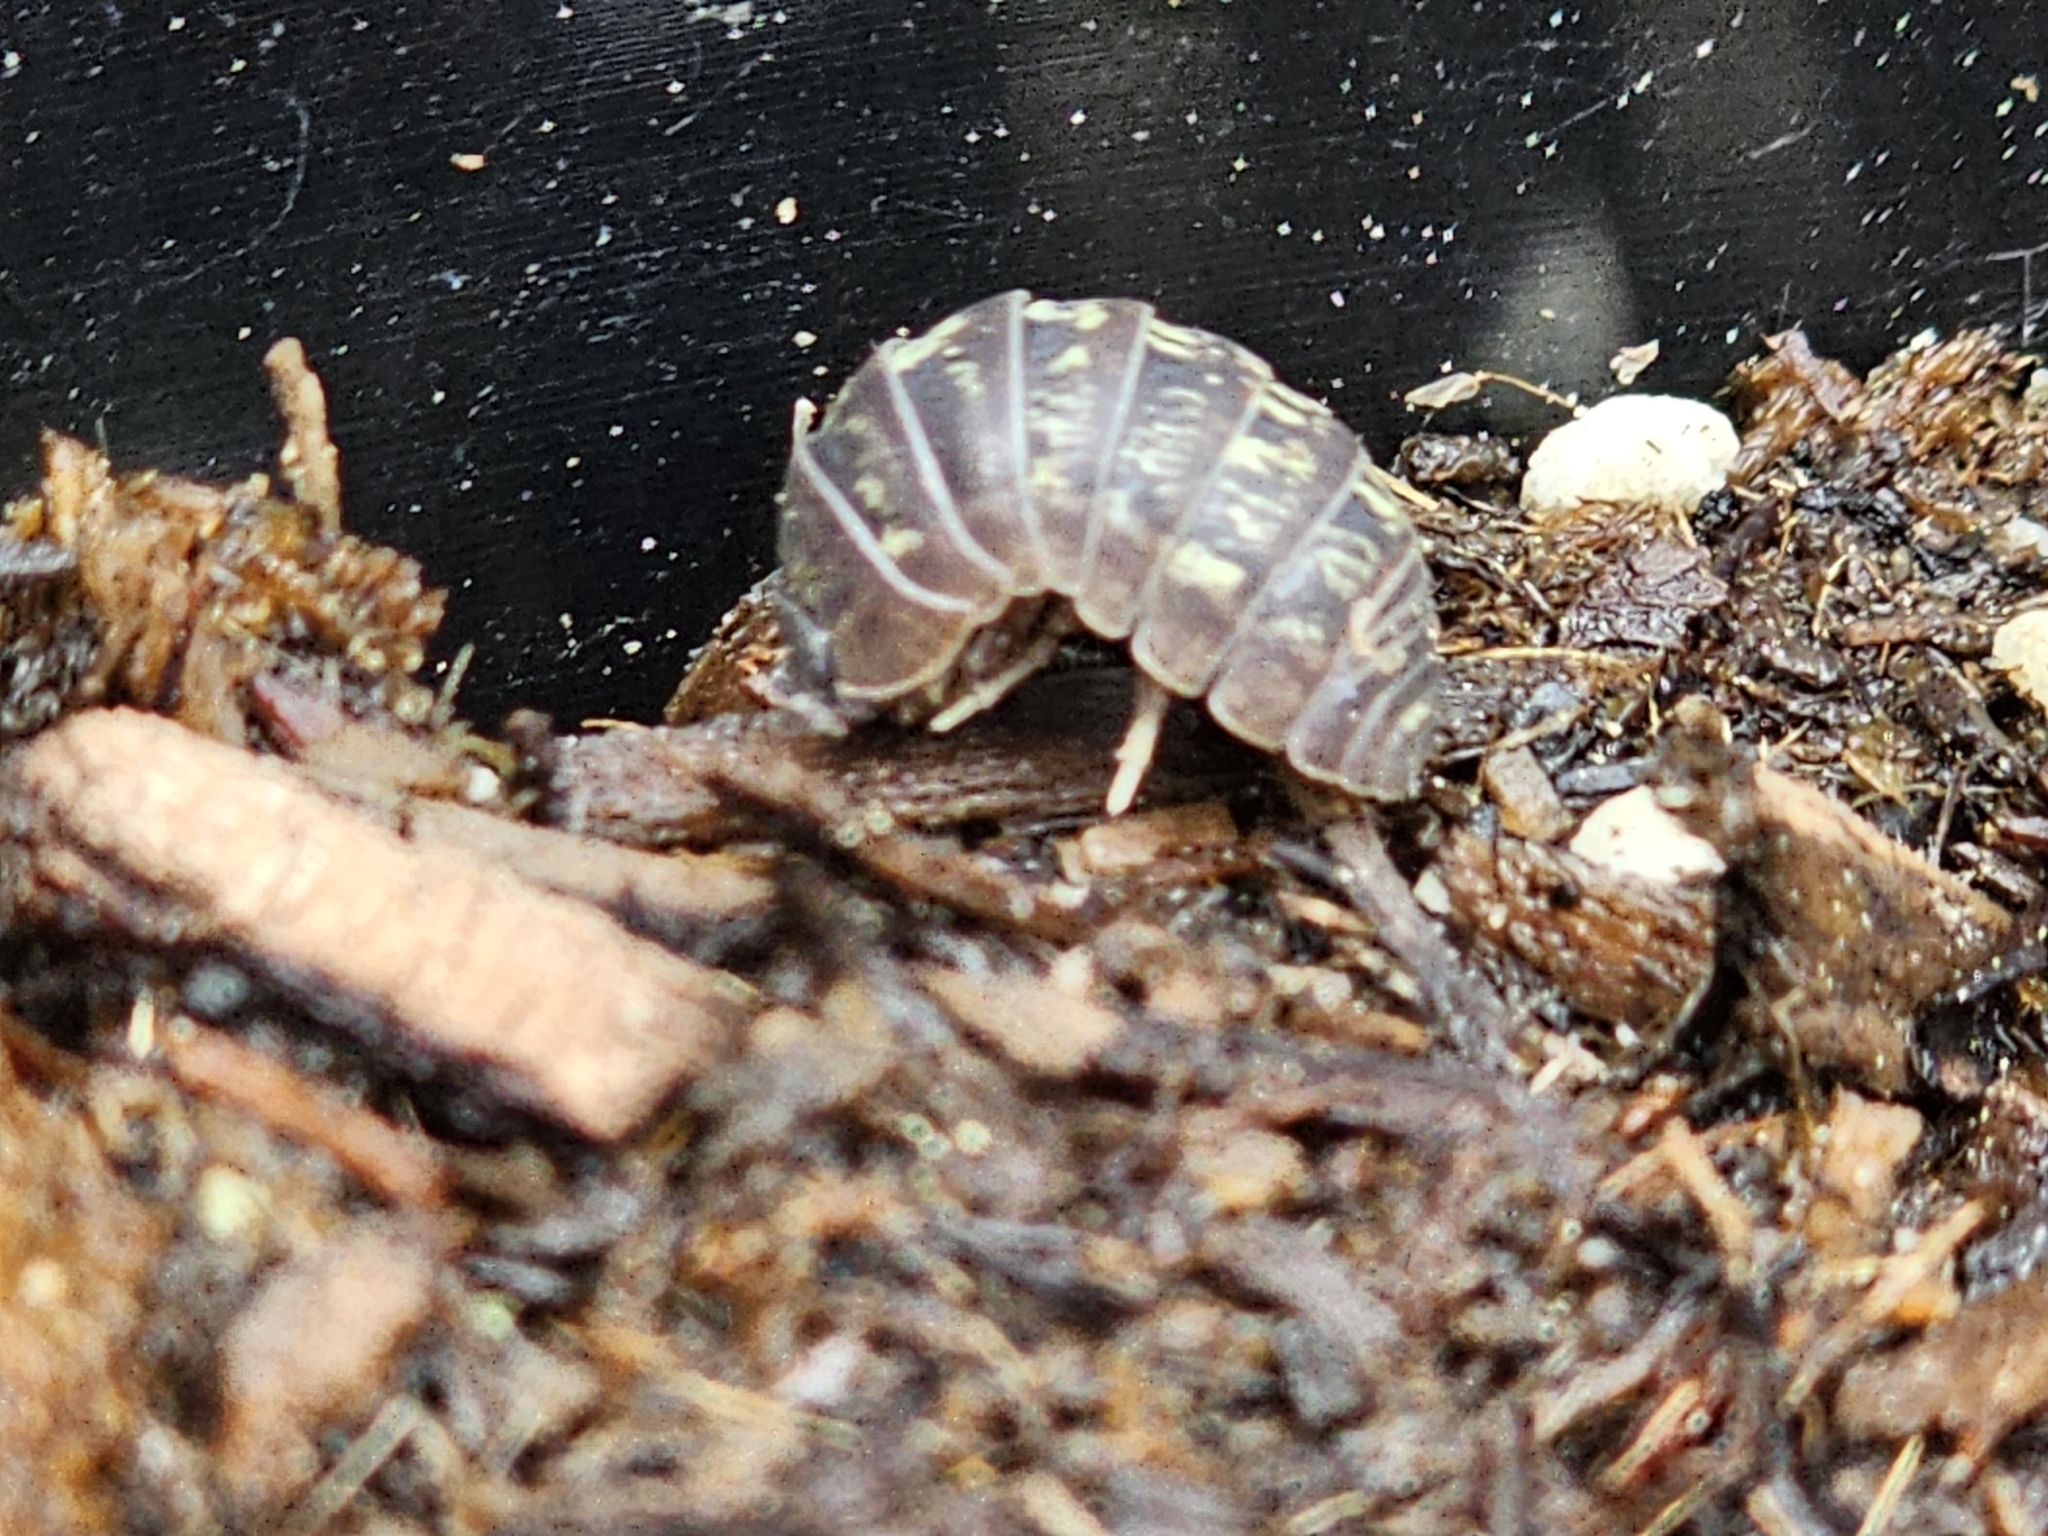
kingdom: Animalia
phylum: Arthropoda
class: Malacostraca
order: Isopoda
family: Armadillidiidae
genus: Armadillidium
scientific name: Armadillidium vulgare
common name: Common pill woodlouse
